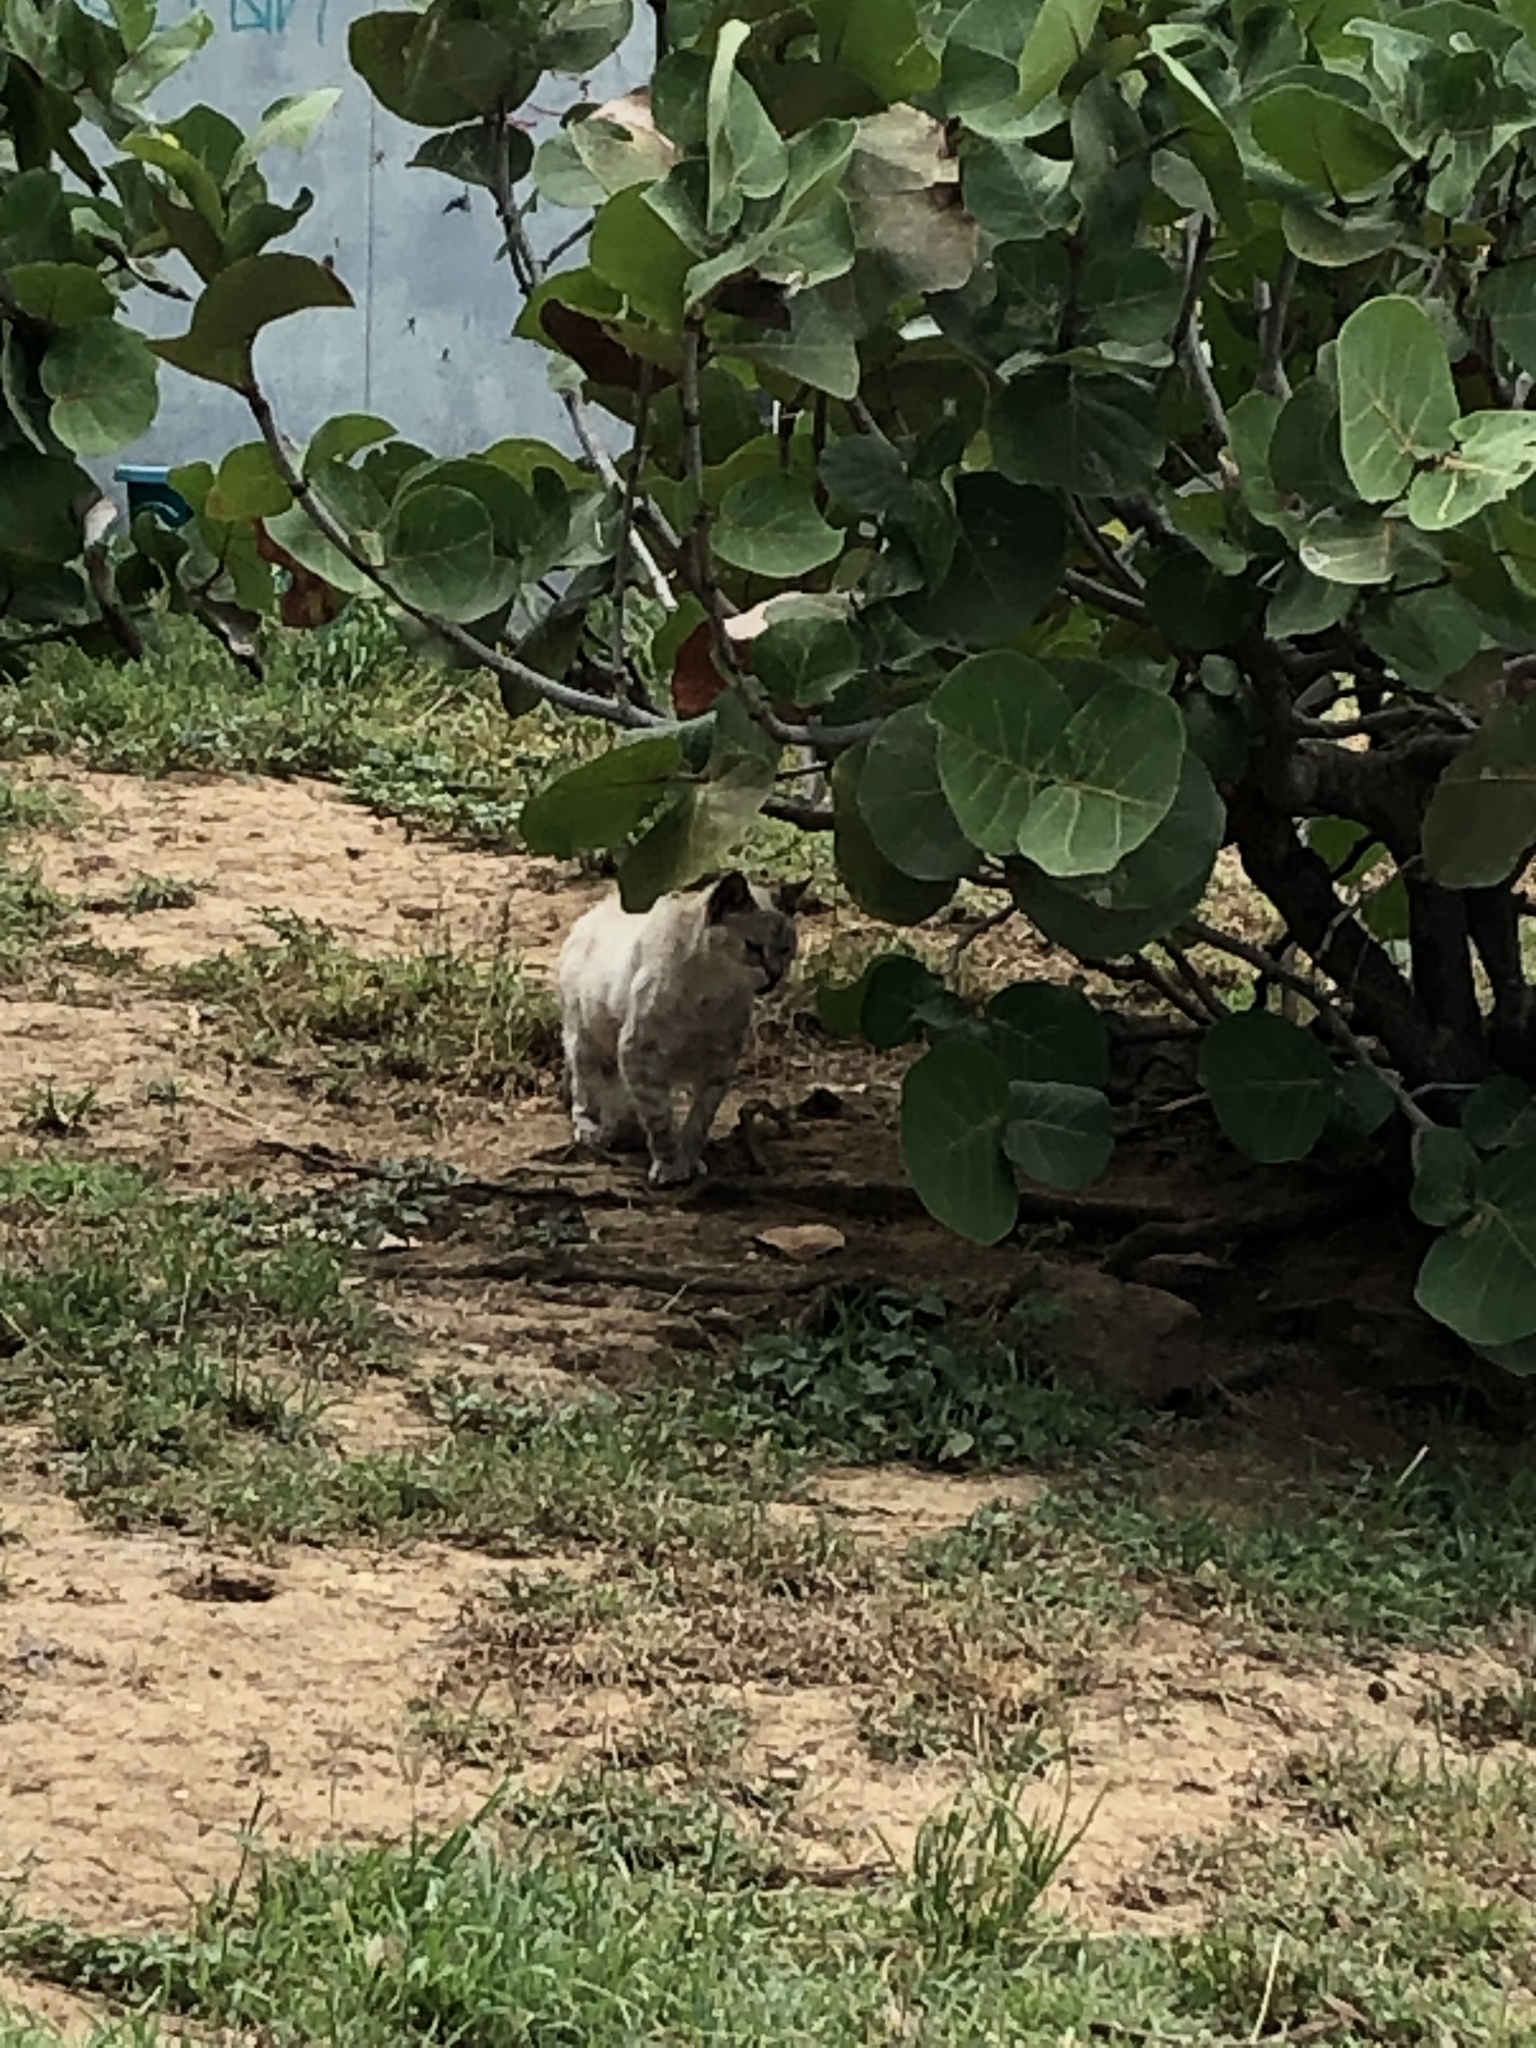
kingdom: Animalia
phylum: Chordata
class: Mammalia
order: Carnivora
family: Felidae
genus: Felis
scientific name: Felis catus
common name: Domestic cat
